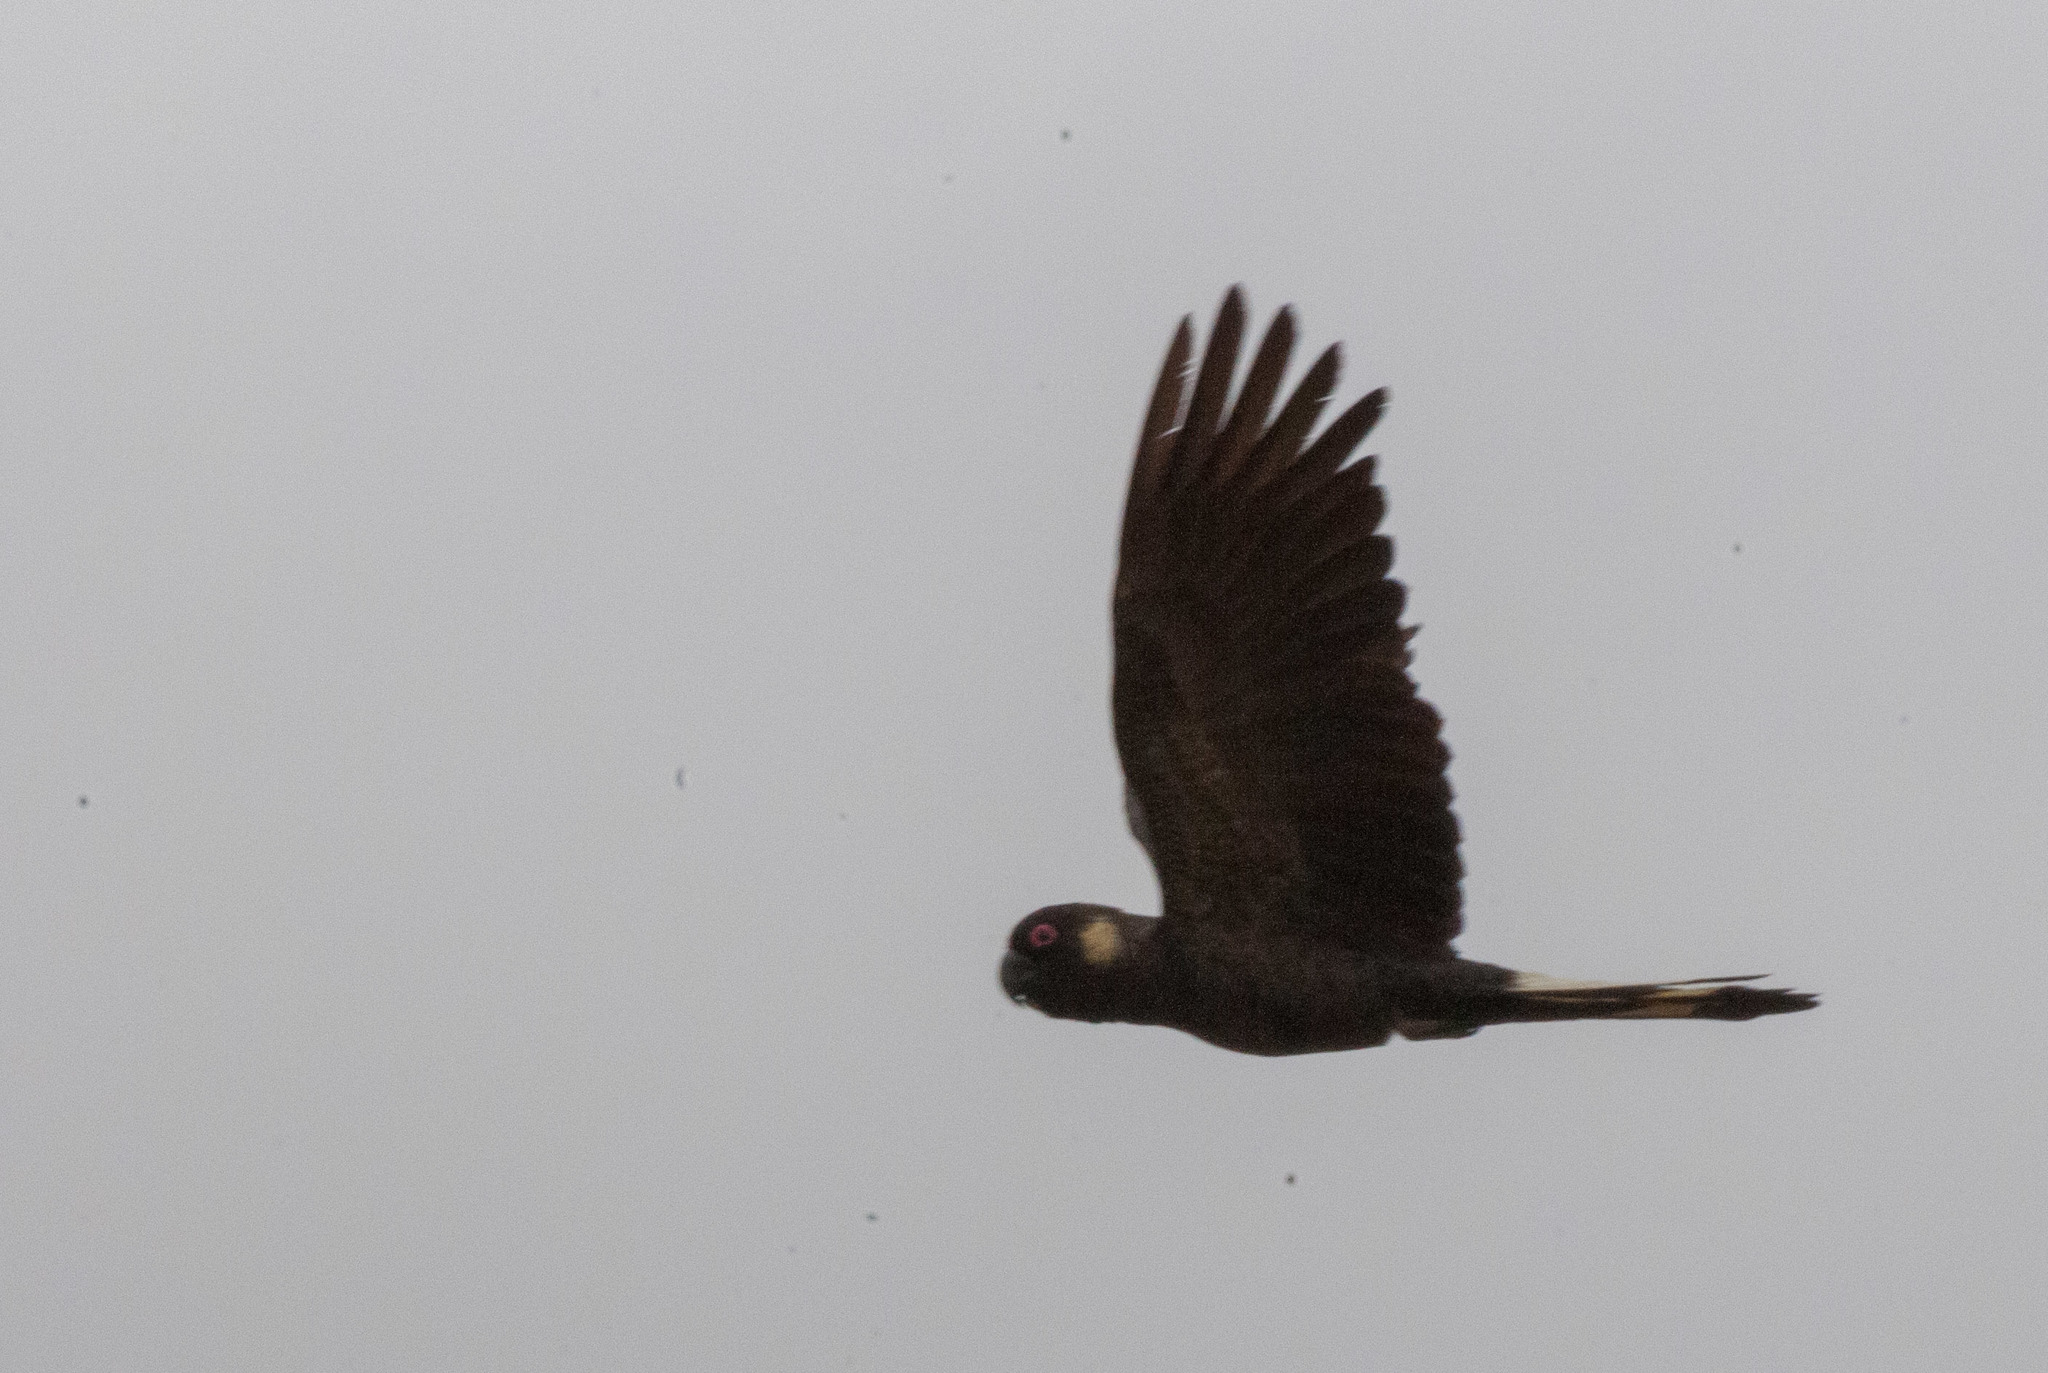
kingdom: Animalia
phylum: Chordata
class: Aves
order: Psittaciformes
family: Cacatuidae
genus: Zanda
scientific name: Zanda funerea
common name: Yellow-tailed black-cockatoo
